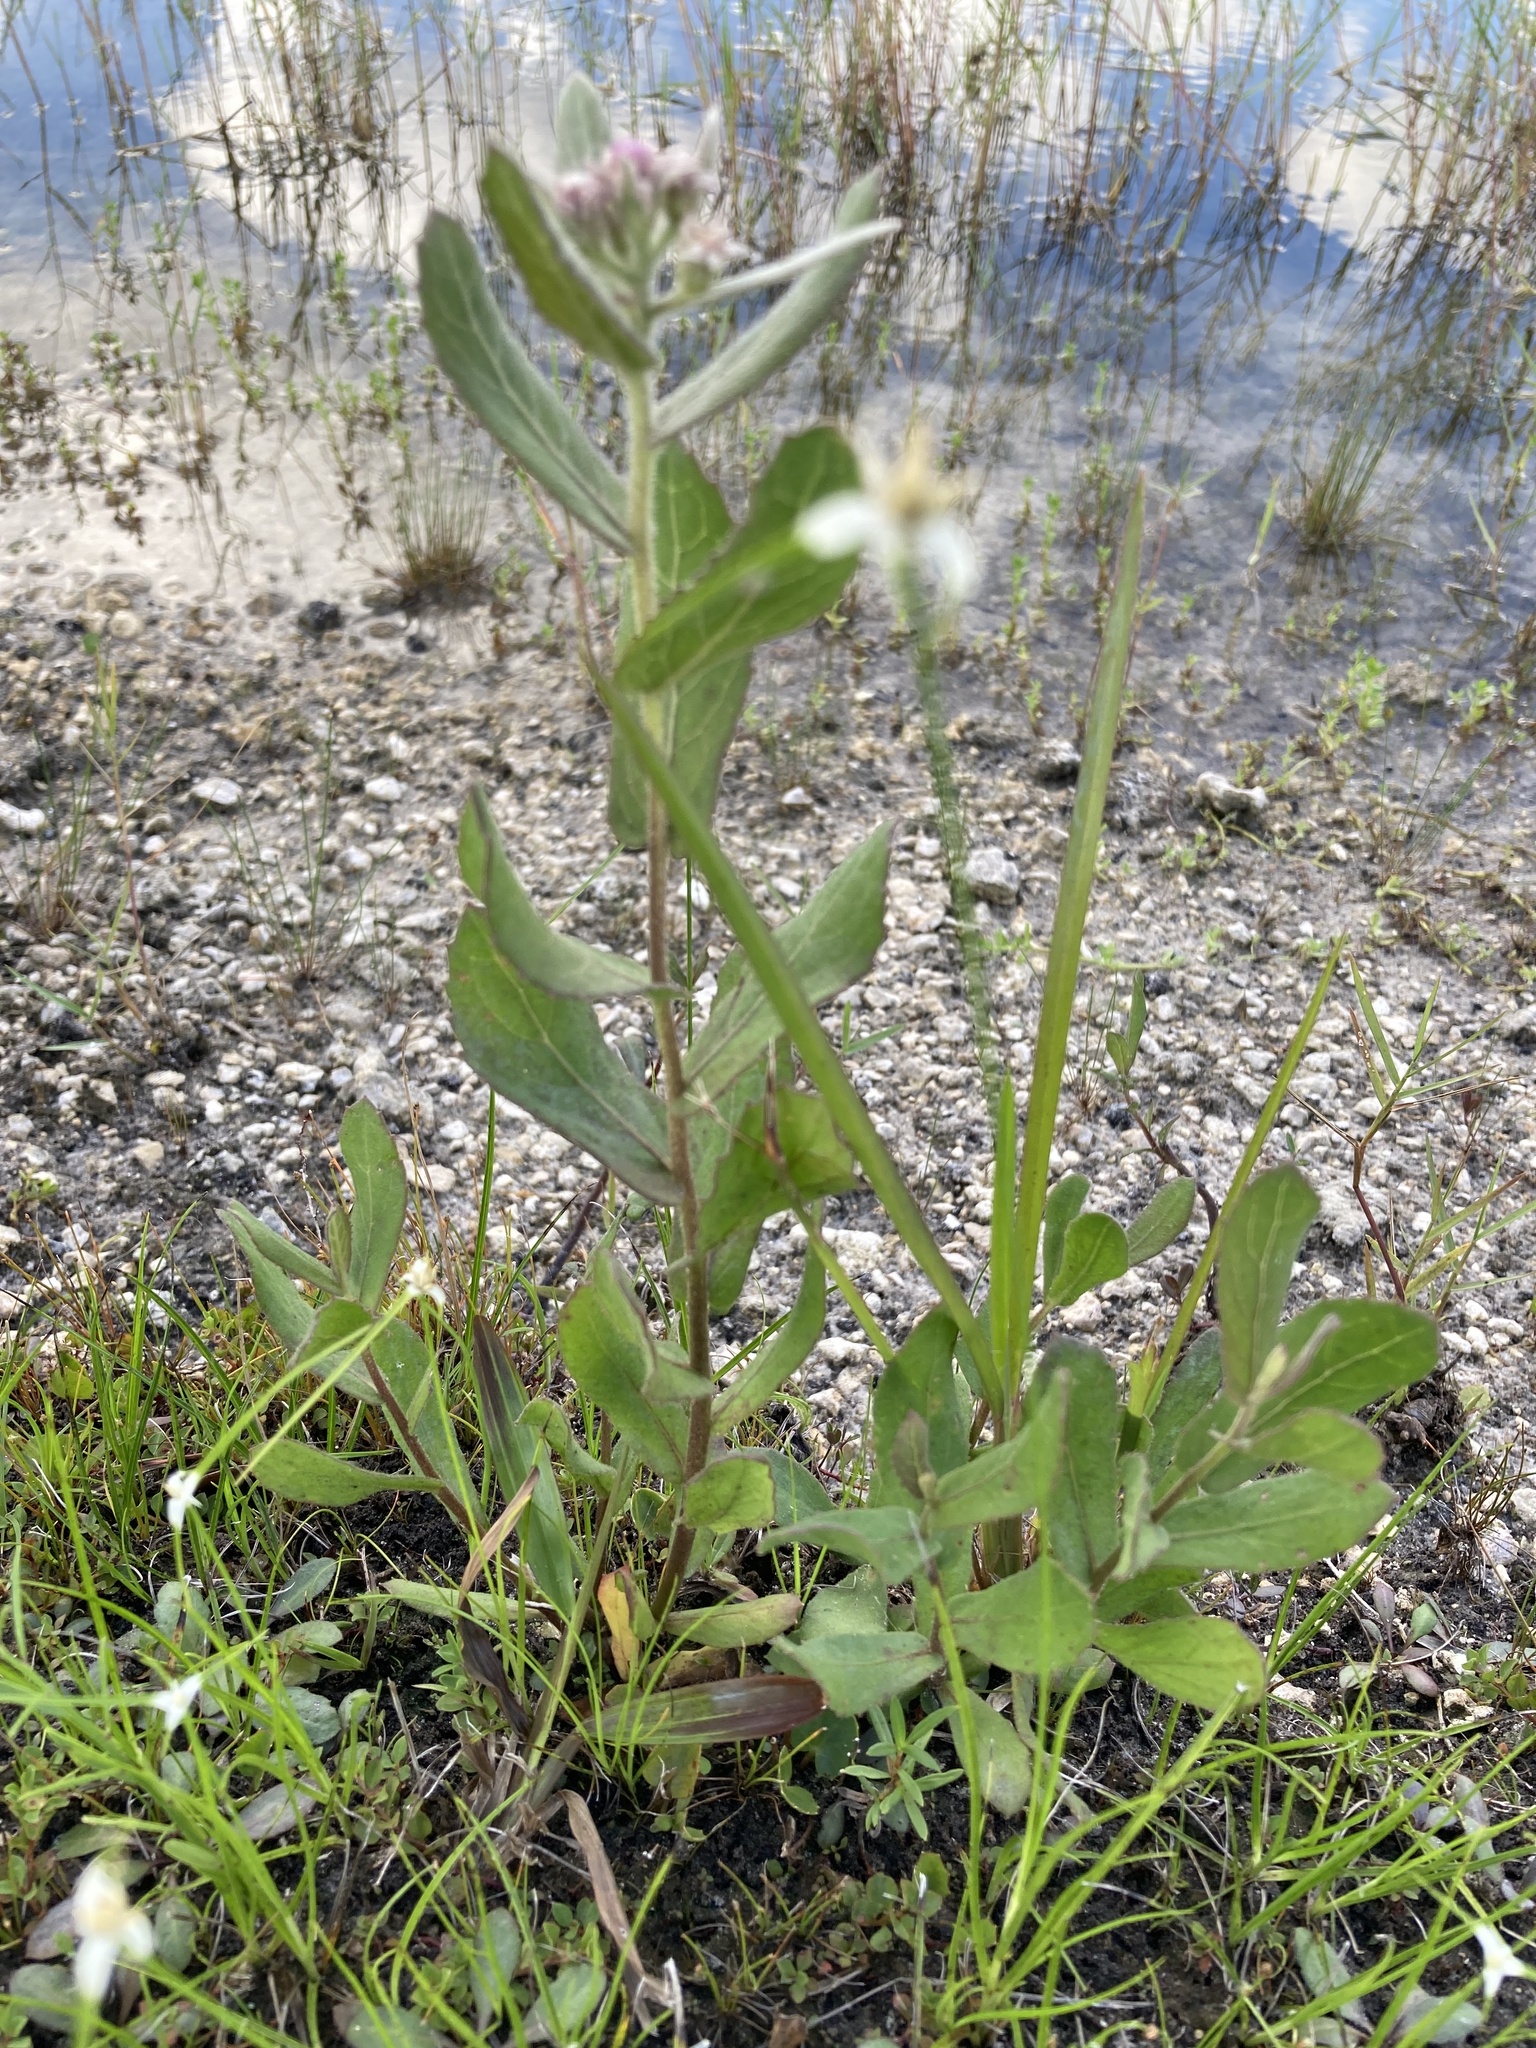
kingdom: Plantae
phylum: Tracheophyta
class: Magnoliopsida
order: Asterales
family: Asteraceae
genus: Pluchea
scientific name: Pluchea baccharis
